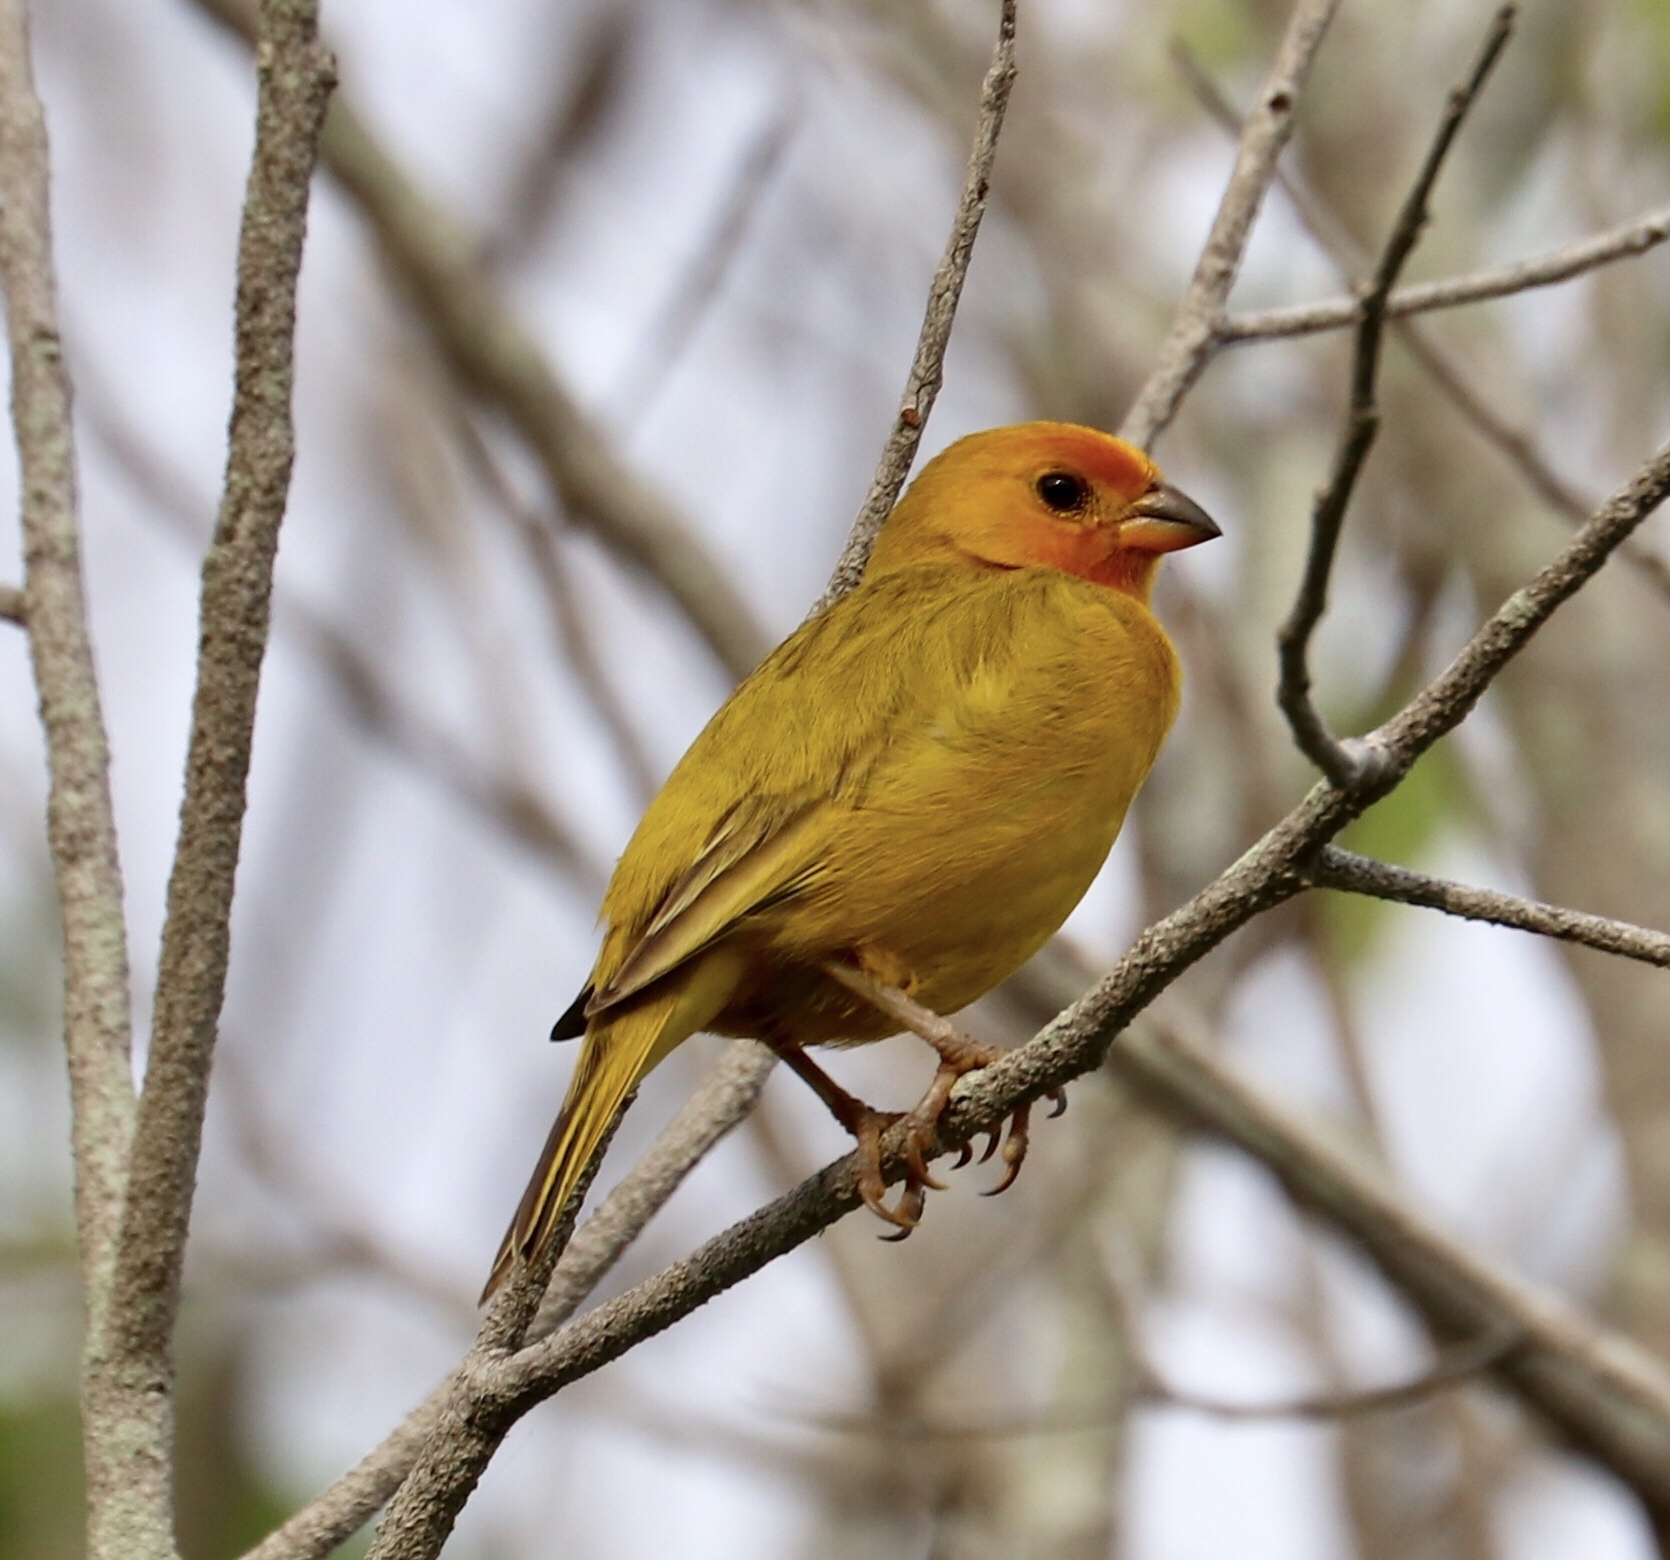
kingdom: Animalia
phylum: Chordata
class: Aves
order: Passeriformes
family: Thraupidae
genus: Sicalis
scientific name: Sicalis flaveola
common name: Saffron finch
